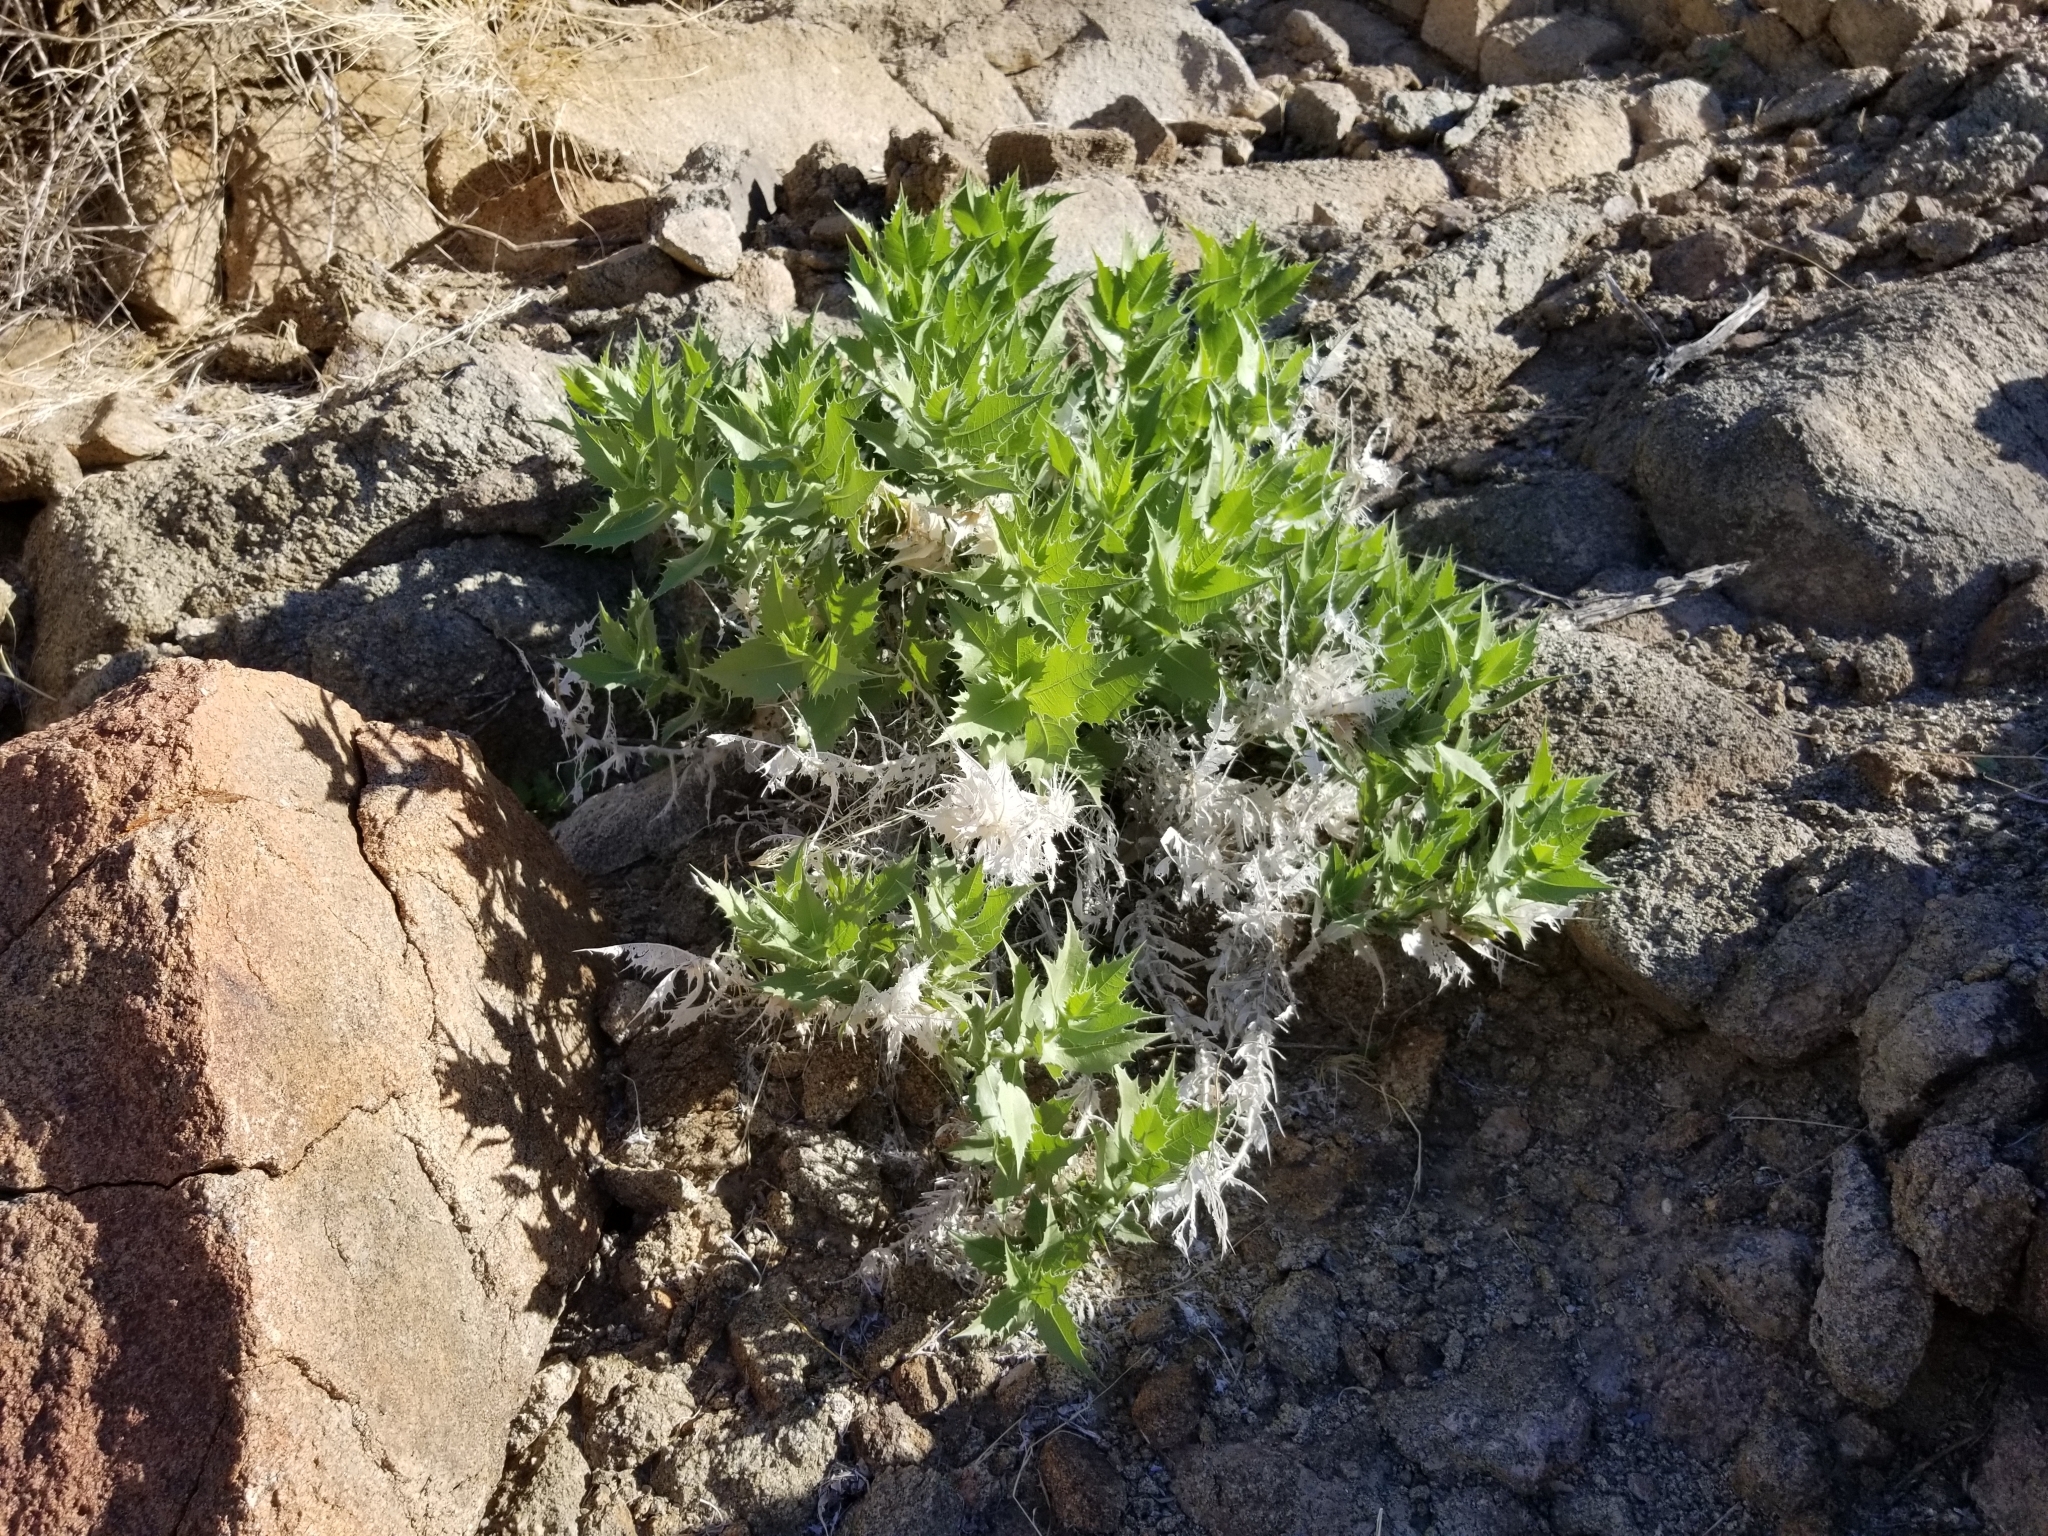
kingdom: Plantae
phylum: Tracheophyta
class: Magnoliopsida
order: Asterales
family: Asteraceae
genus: Ambrosia
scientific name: Ambrosia ilicifolia
